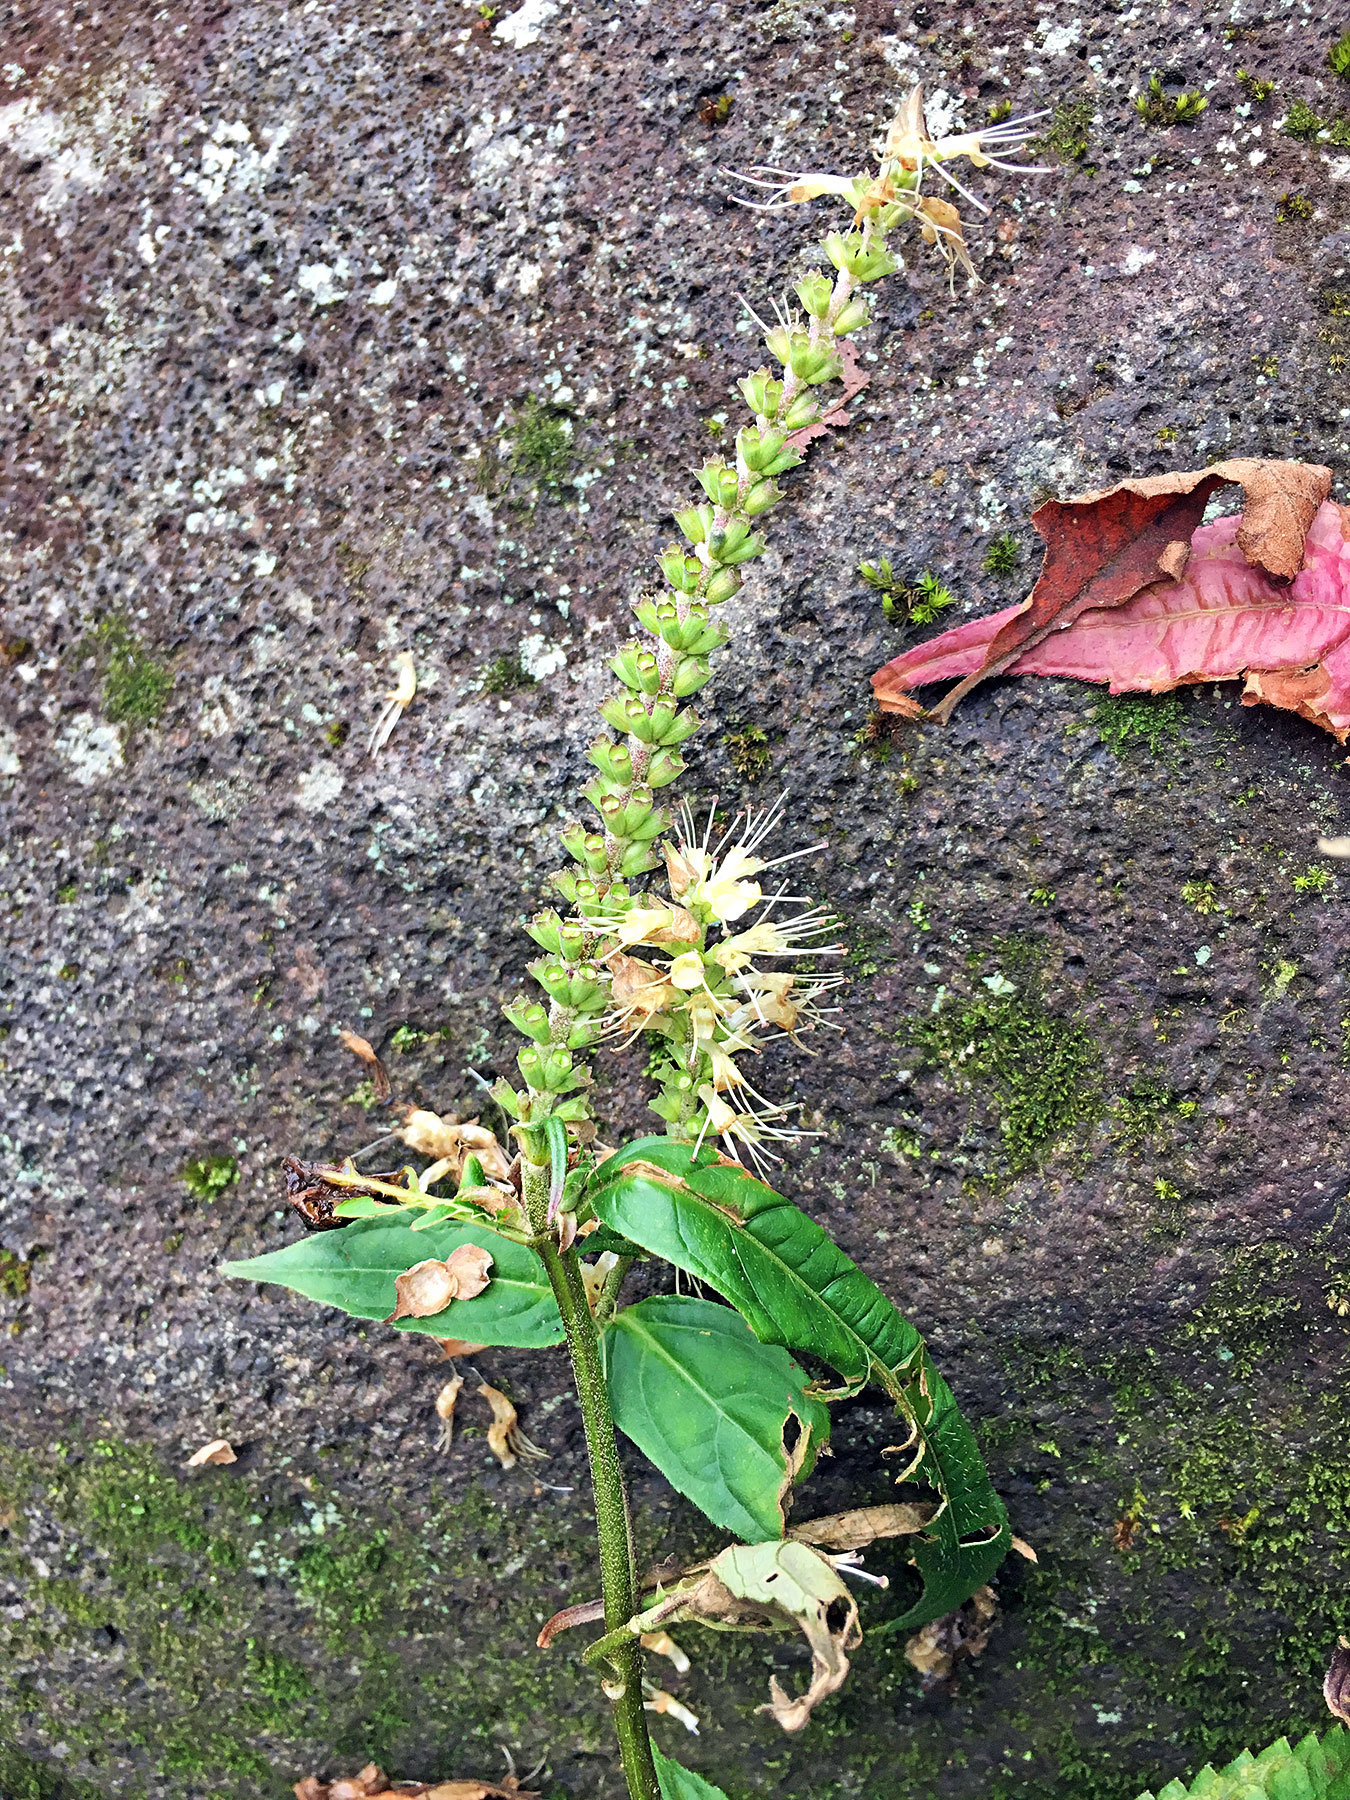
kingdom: Plantae
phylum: Tracheophyta
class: Magnoliopsida
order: Lamiales
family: Lamiaceae
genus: Comanthosphace
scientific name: Comanthosphace japonica
